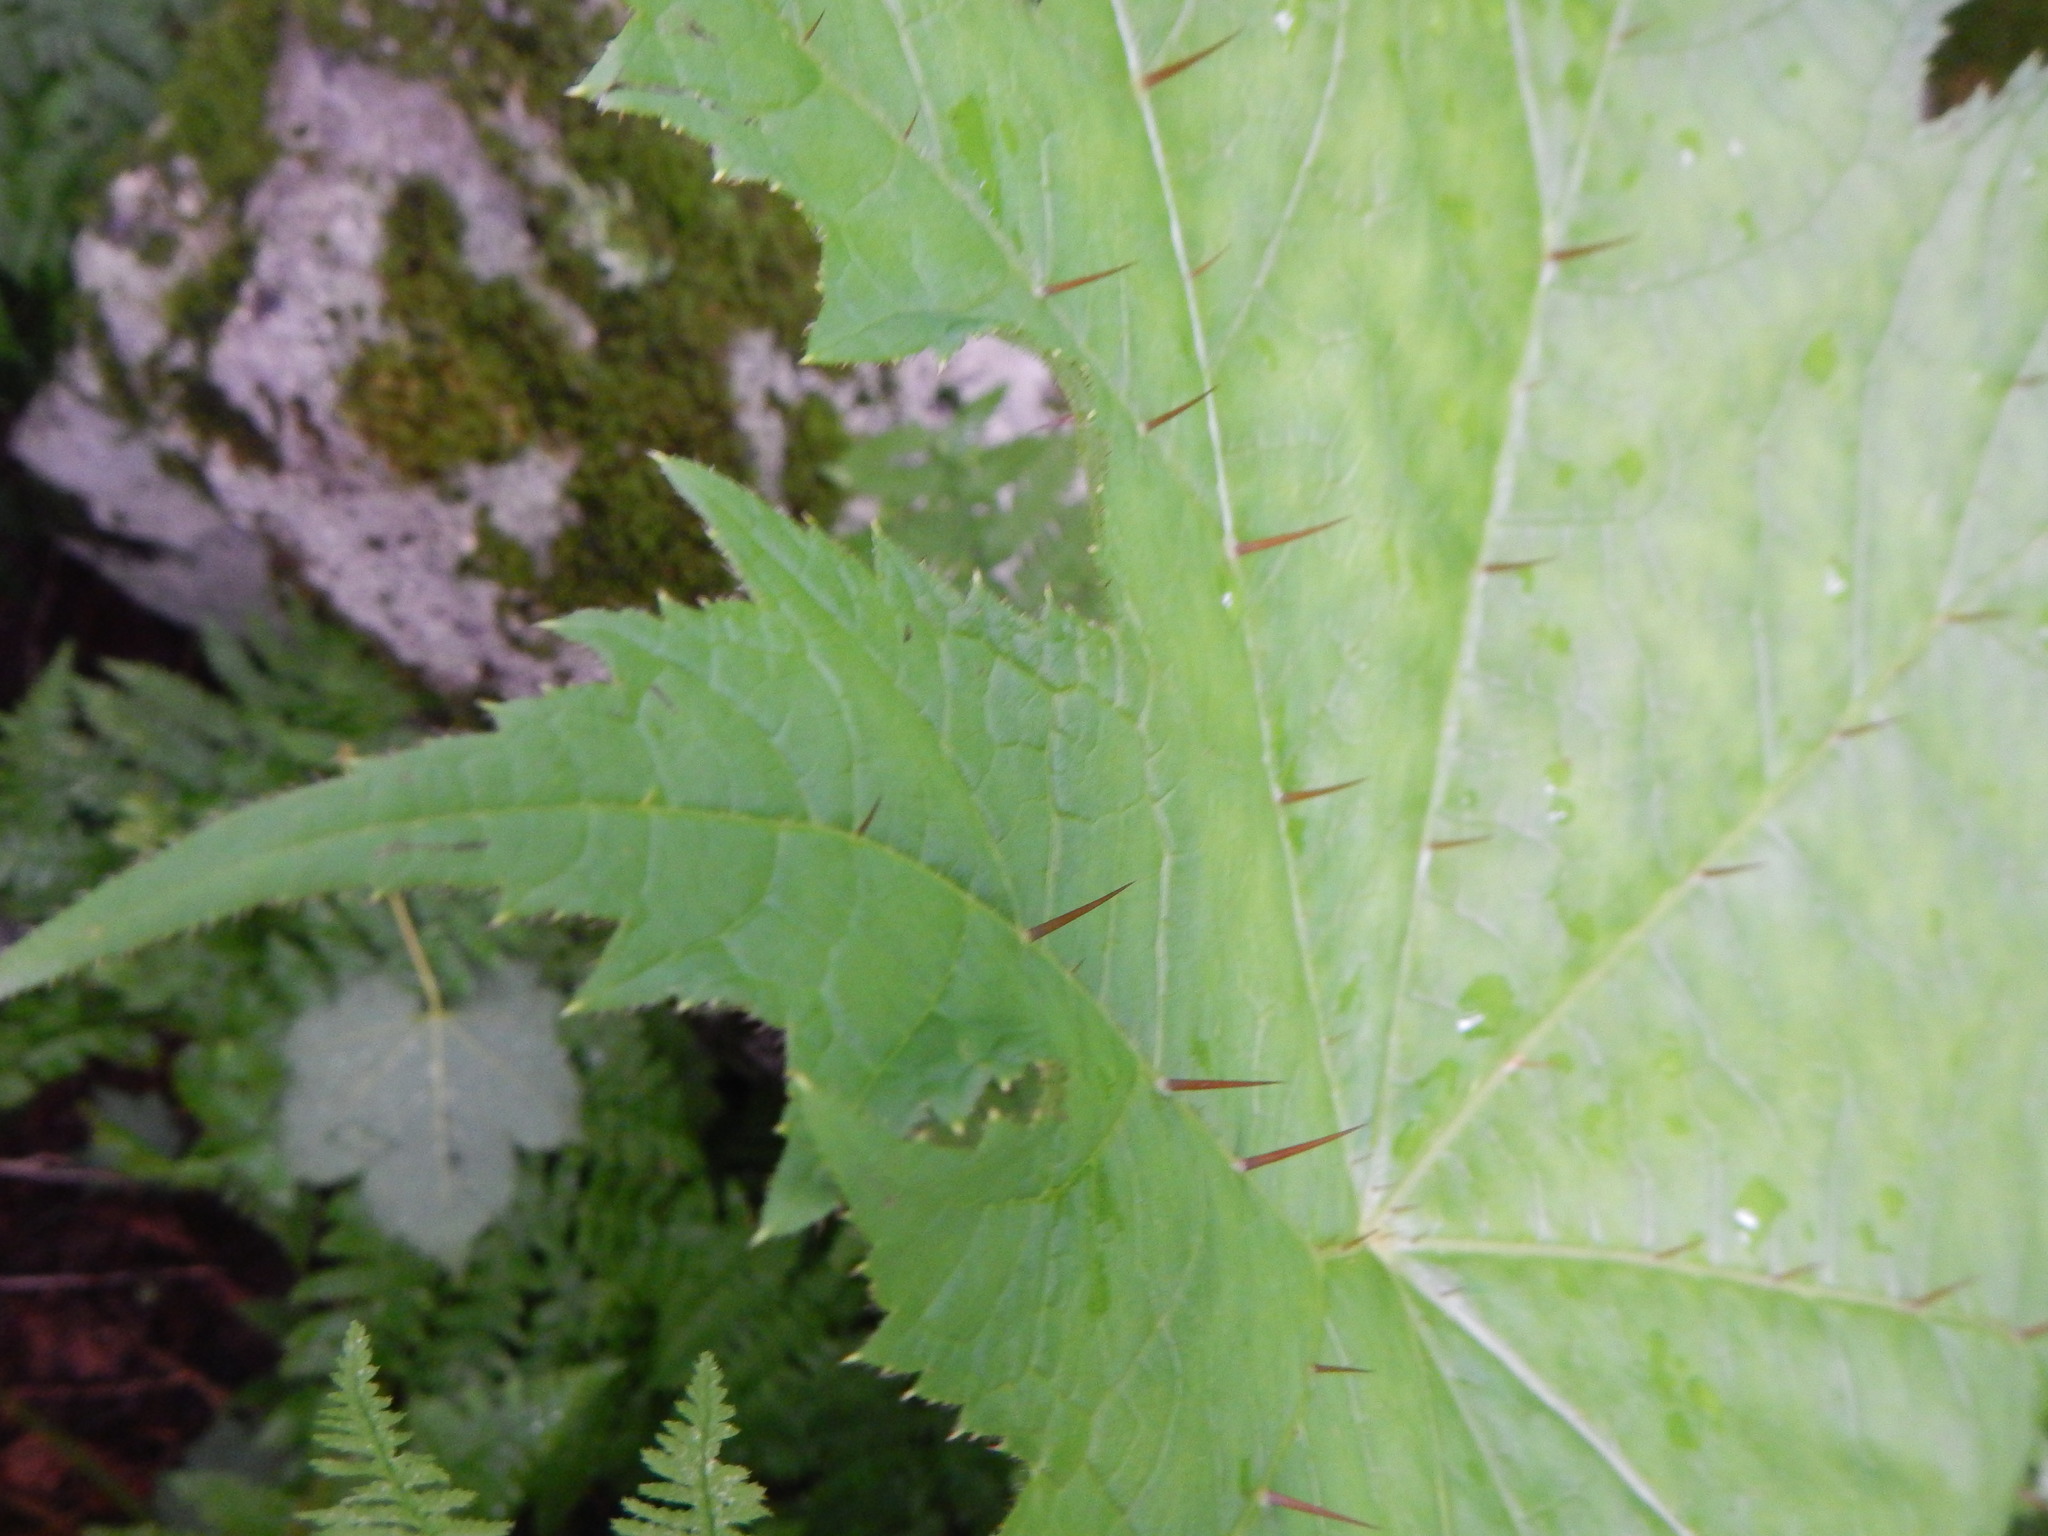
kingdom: Plantae
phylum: Tracheophyta
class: Magnoliopsida
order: Apiales
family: Araliaceae
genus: Oplopanax
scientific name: Oplopanax japonicus
